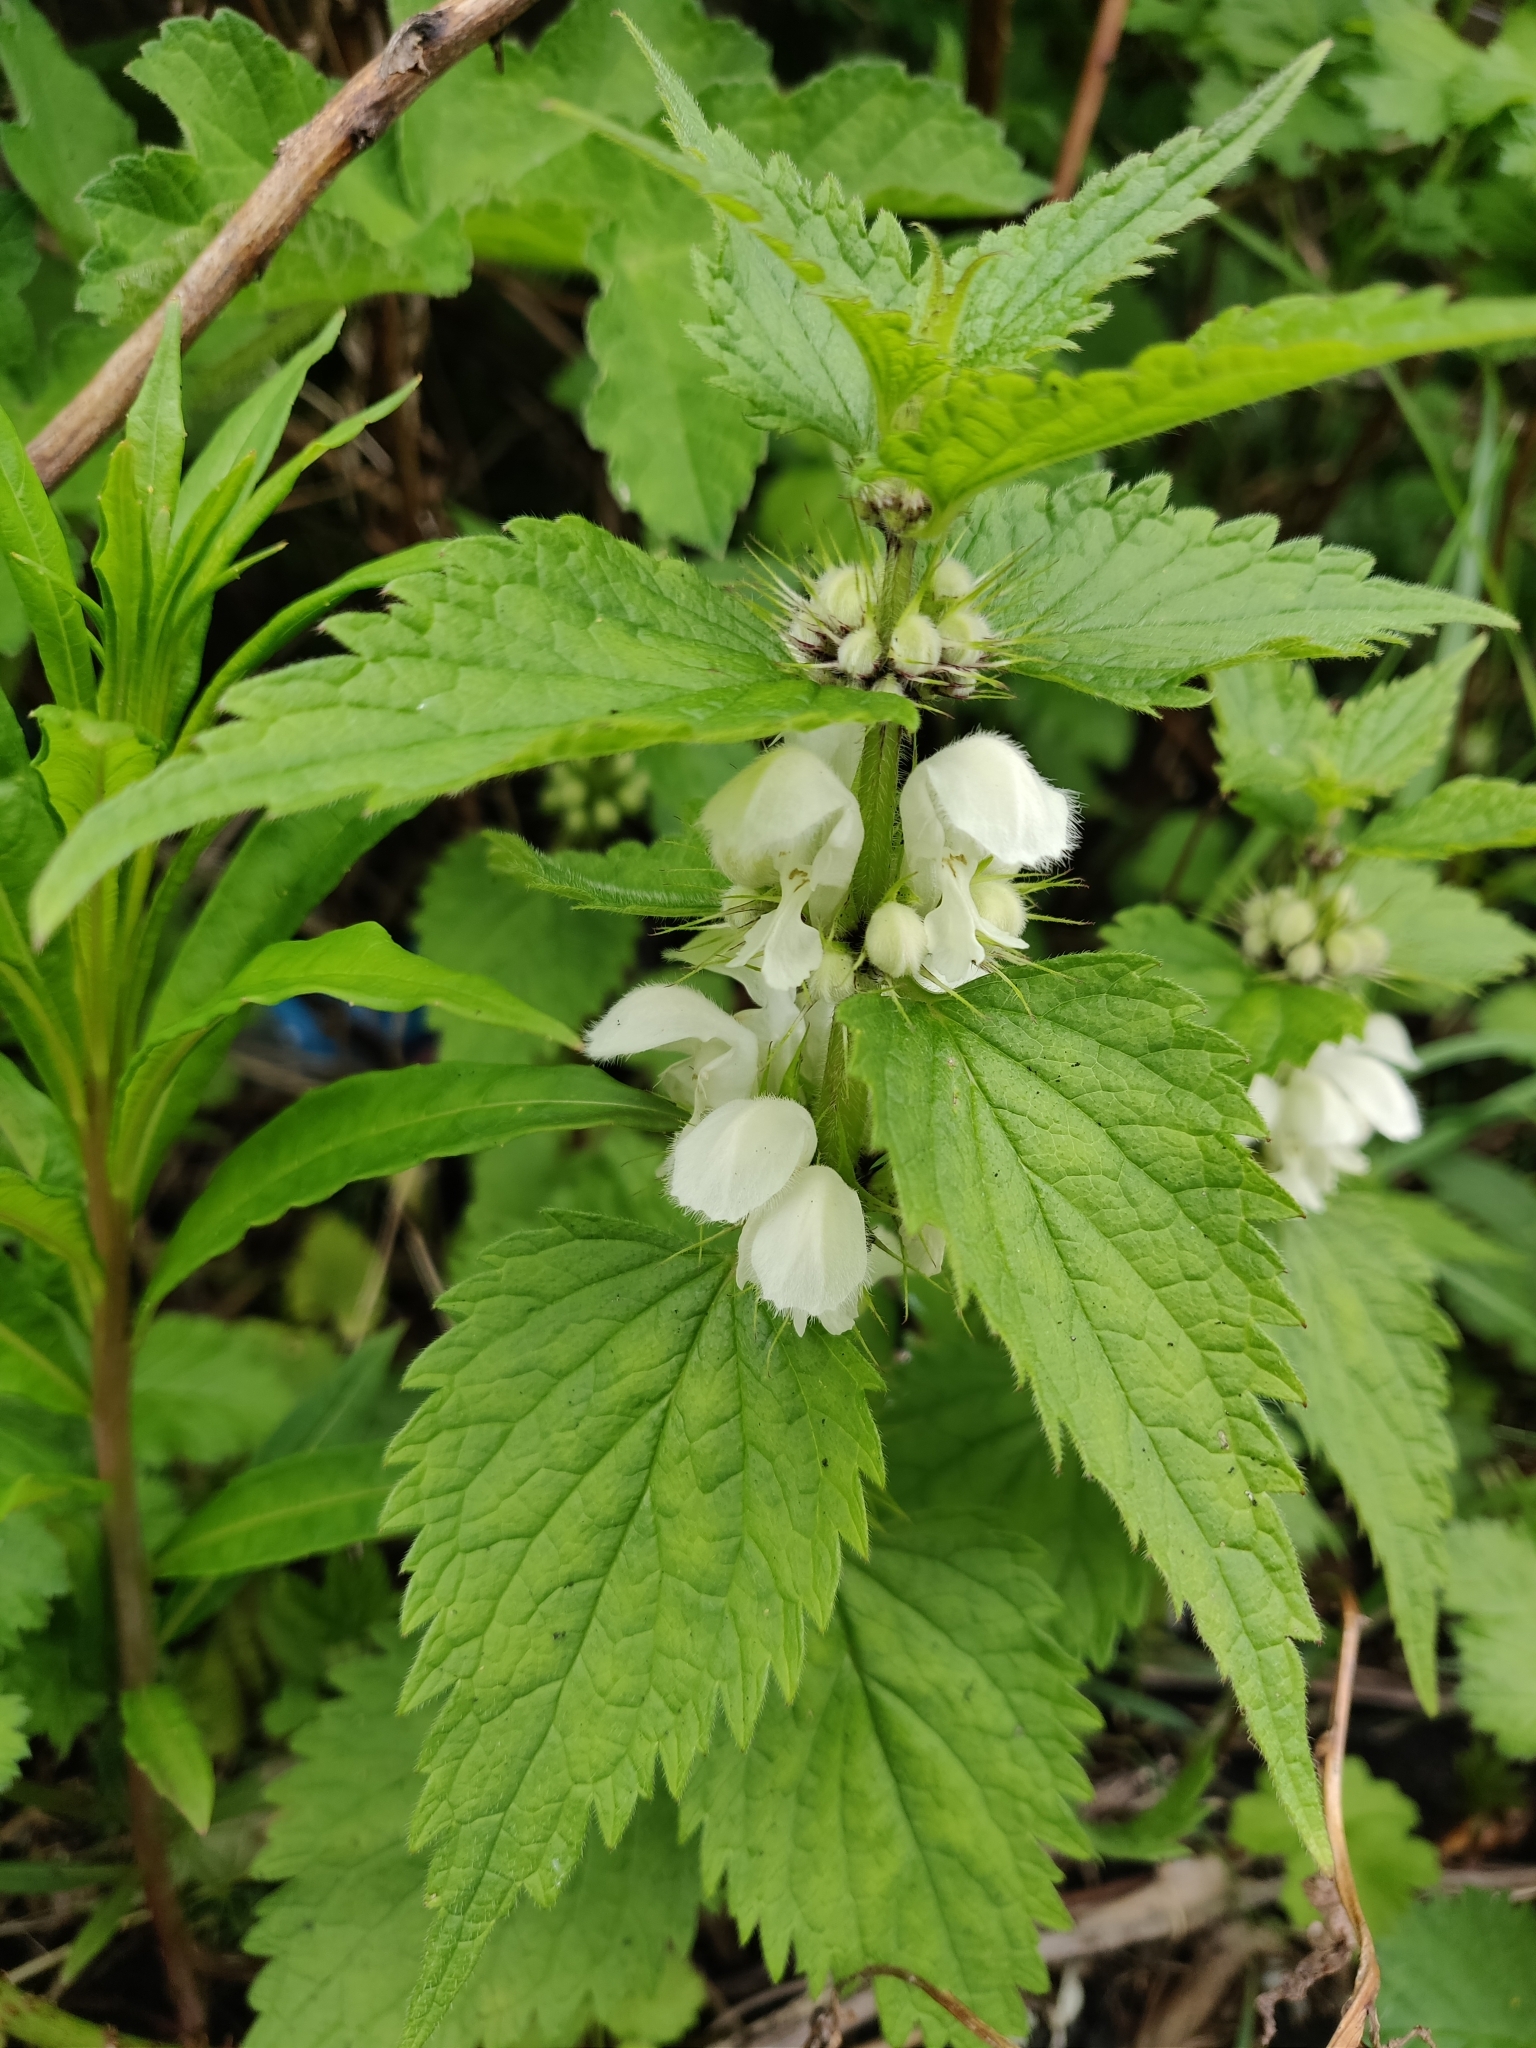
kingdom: Plantae
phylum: Tracheophyta
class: Magnoliopsida
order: Lamiales
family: Lamiaceae
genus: Lamium
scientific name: Lamium album
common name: White dead-nettle
